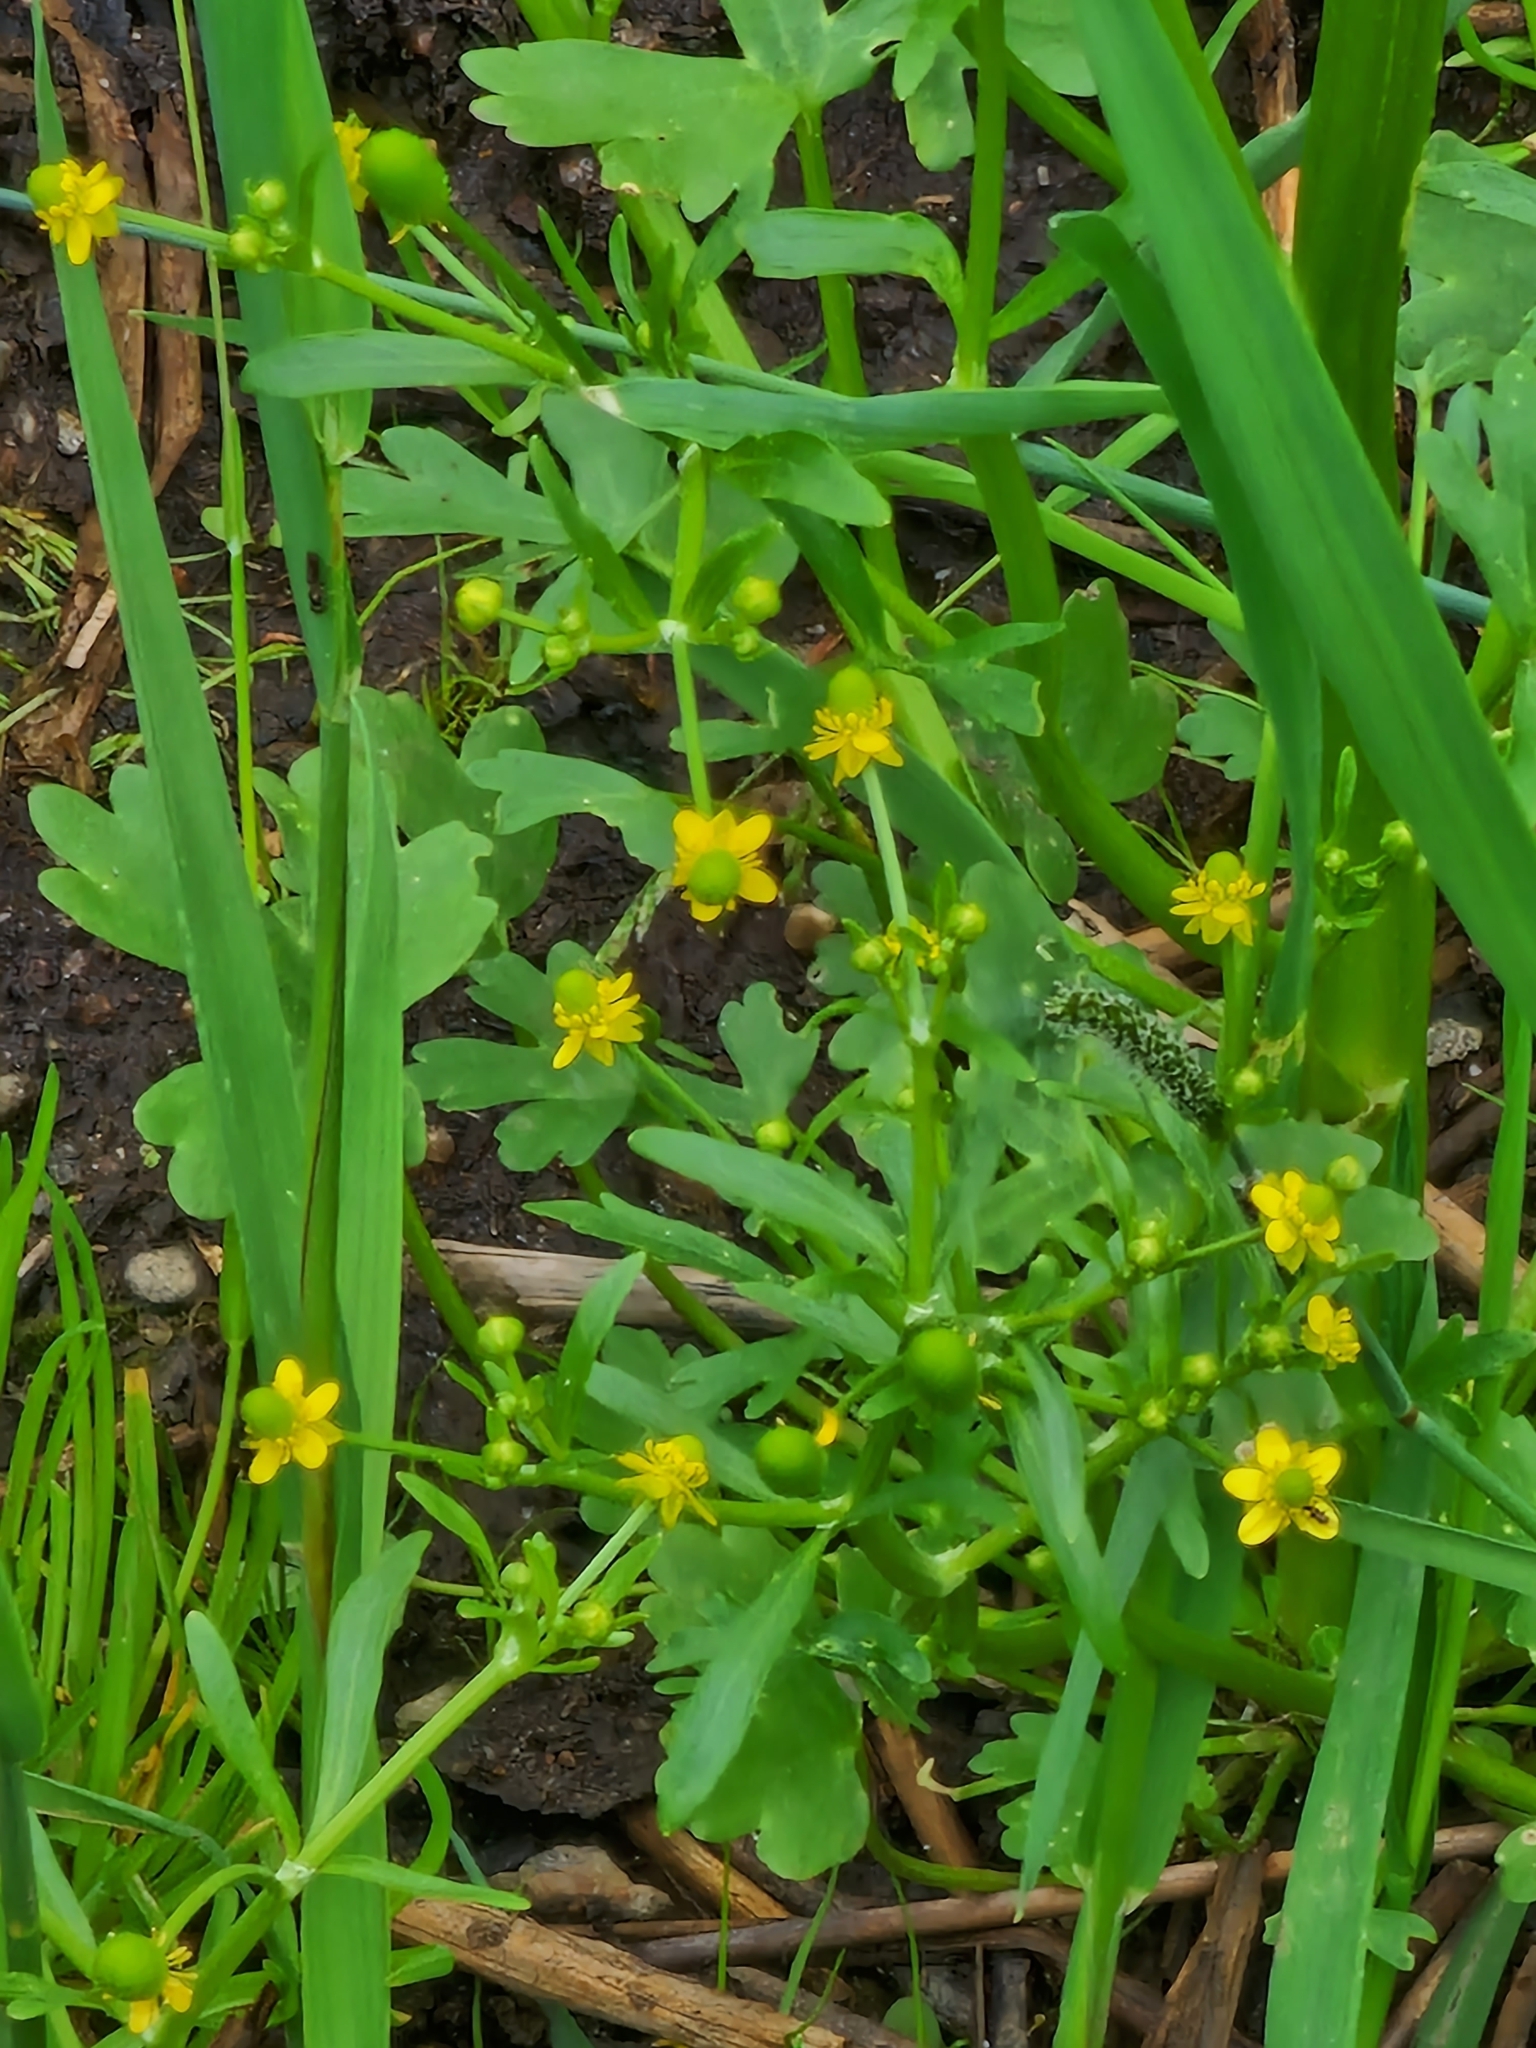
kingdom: Plantae
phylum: Tracheophyta
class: Magnoliopsida
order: Ranunculales
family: Ranunculaceae
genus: Ranunculus
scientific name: Ranunculus sceleratus
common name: Celery-leaved buttercup
